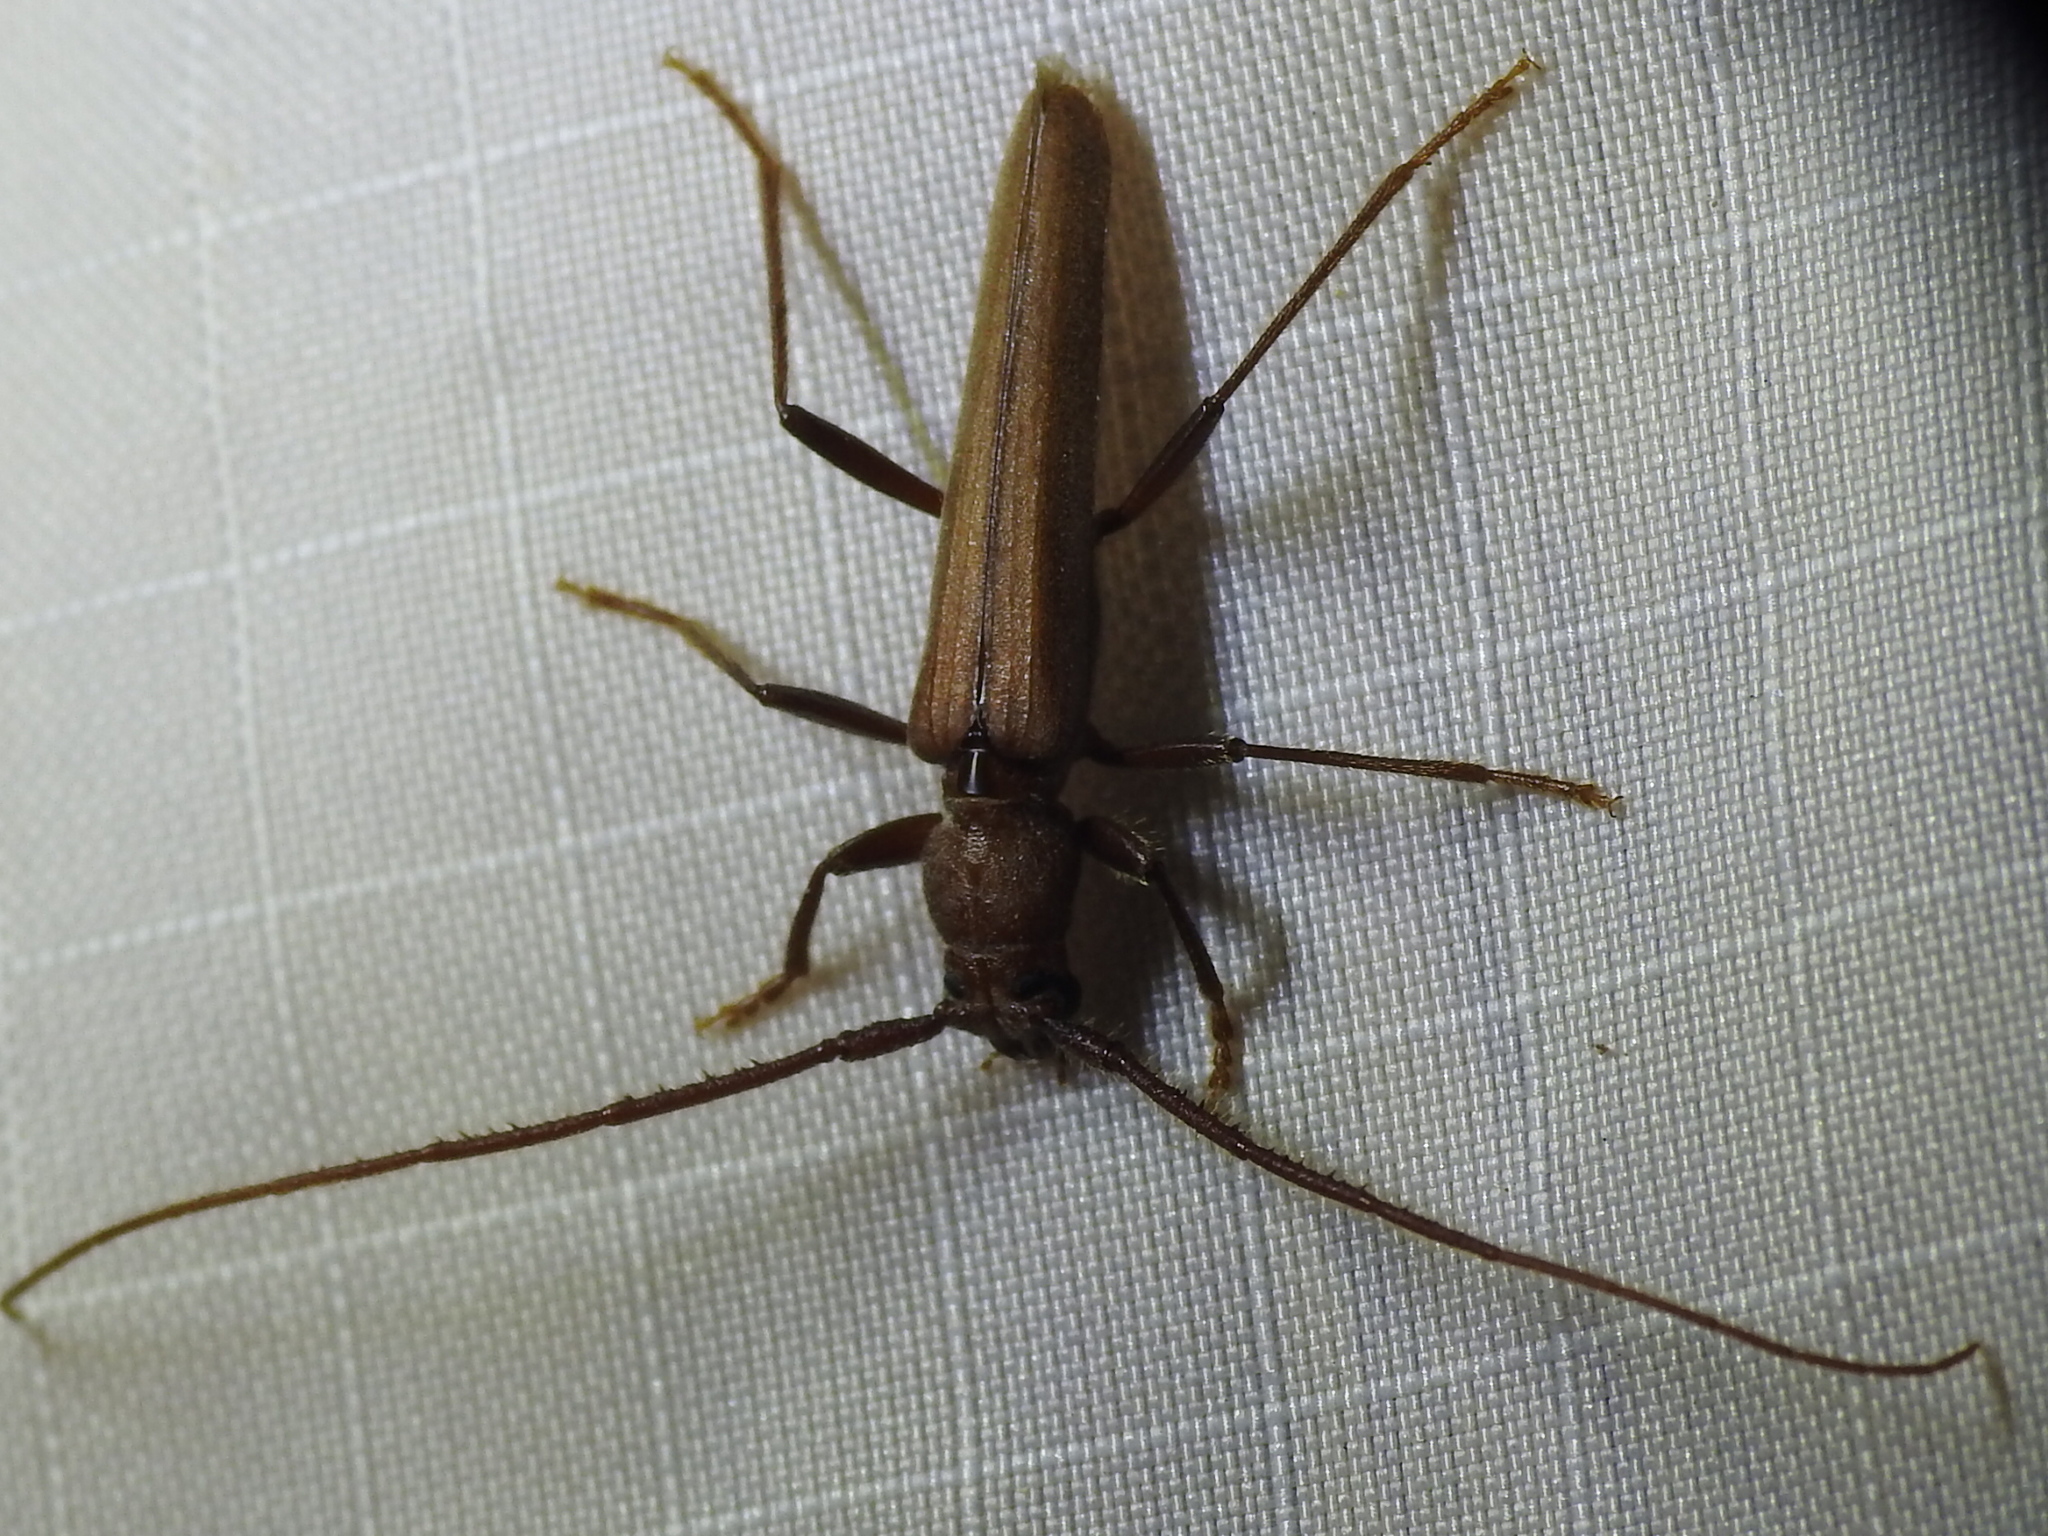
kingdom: Animalia
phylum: Arthropoda
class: Insecta
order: Coleoptera
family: Cerambycidae
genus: Oeme
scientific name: Oeme rigida
